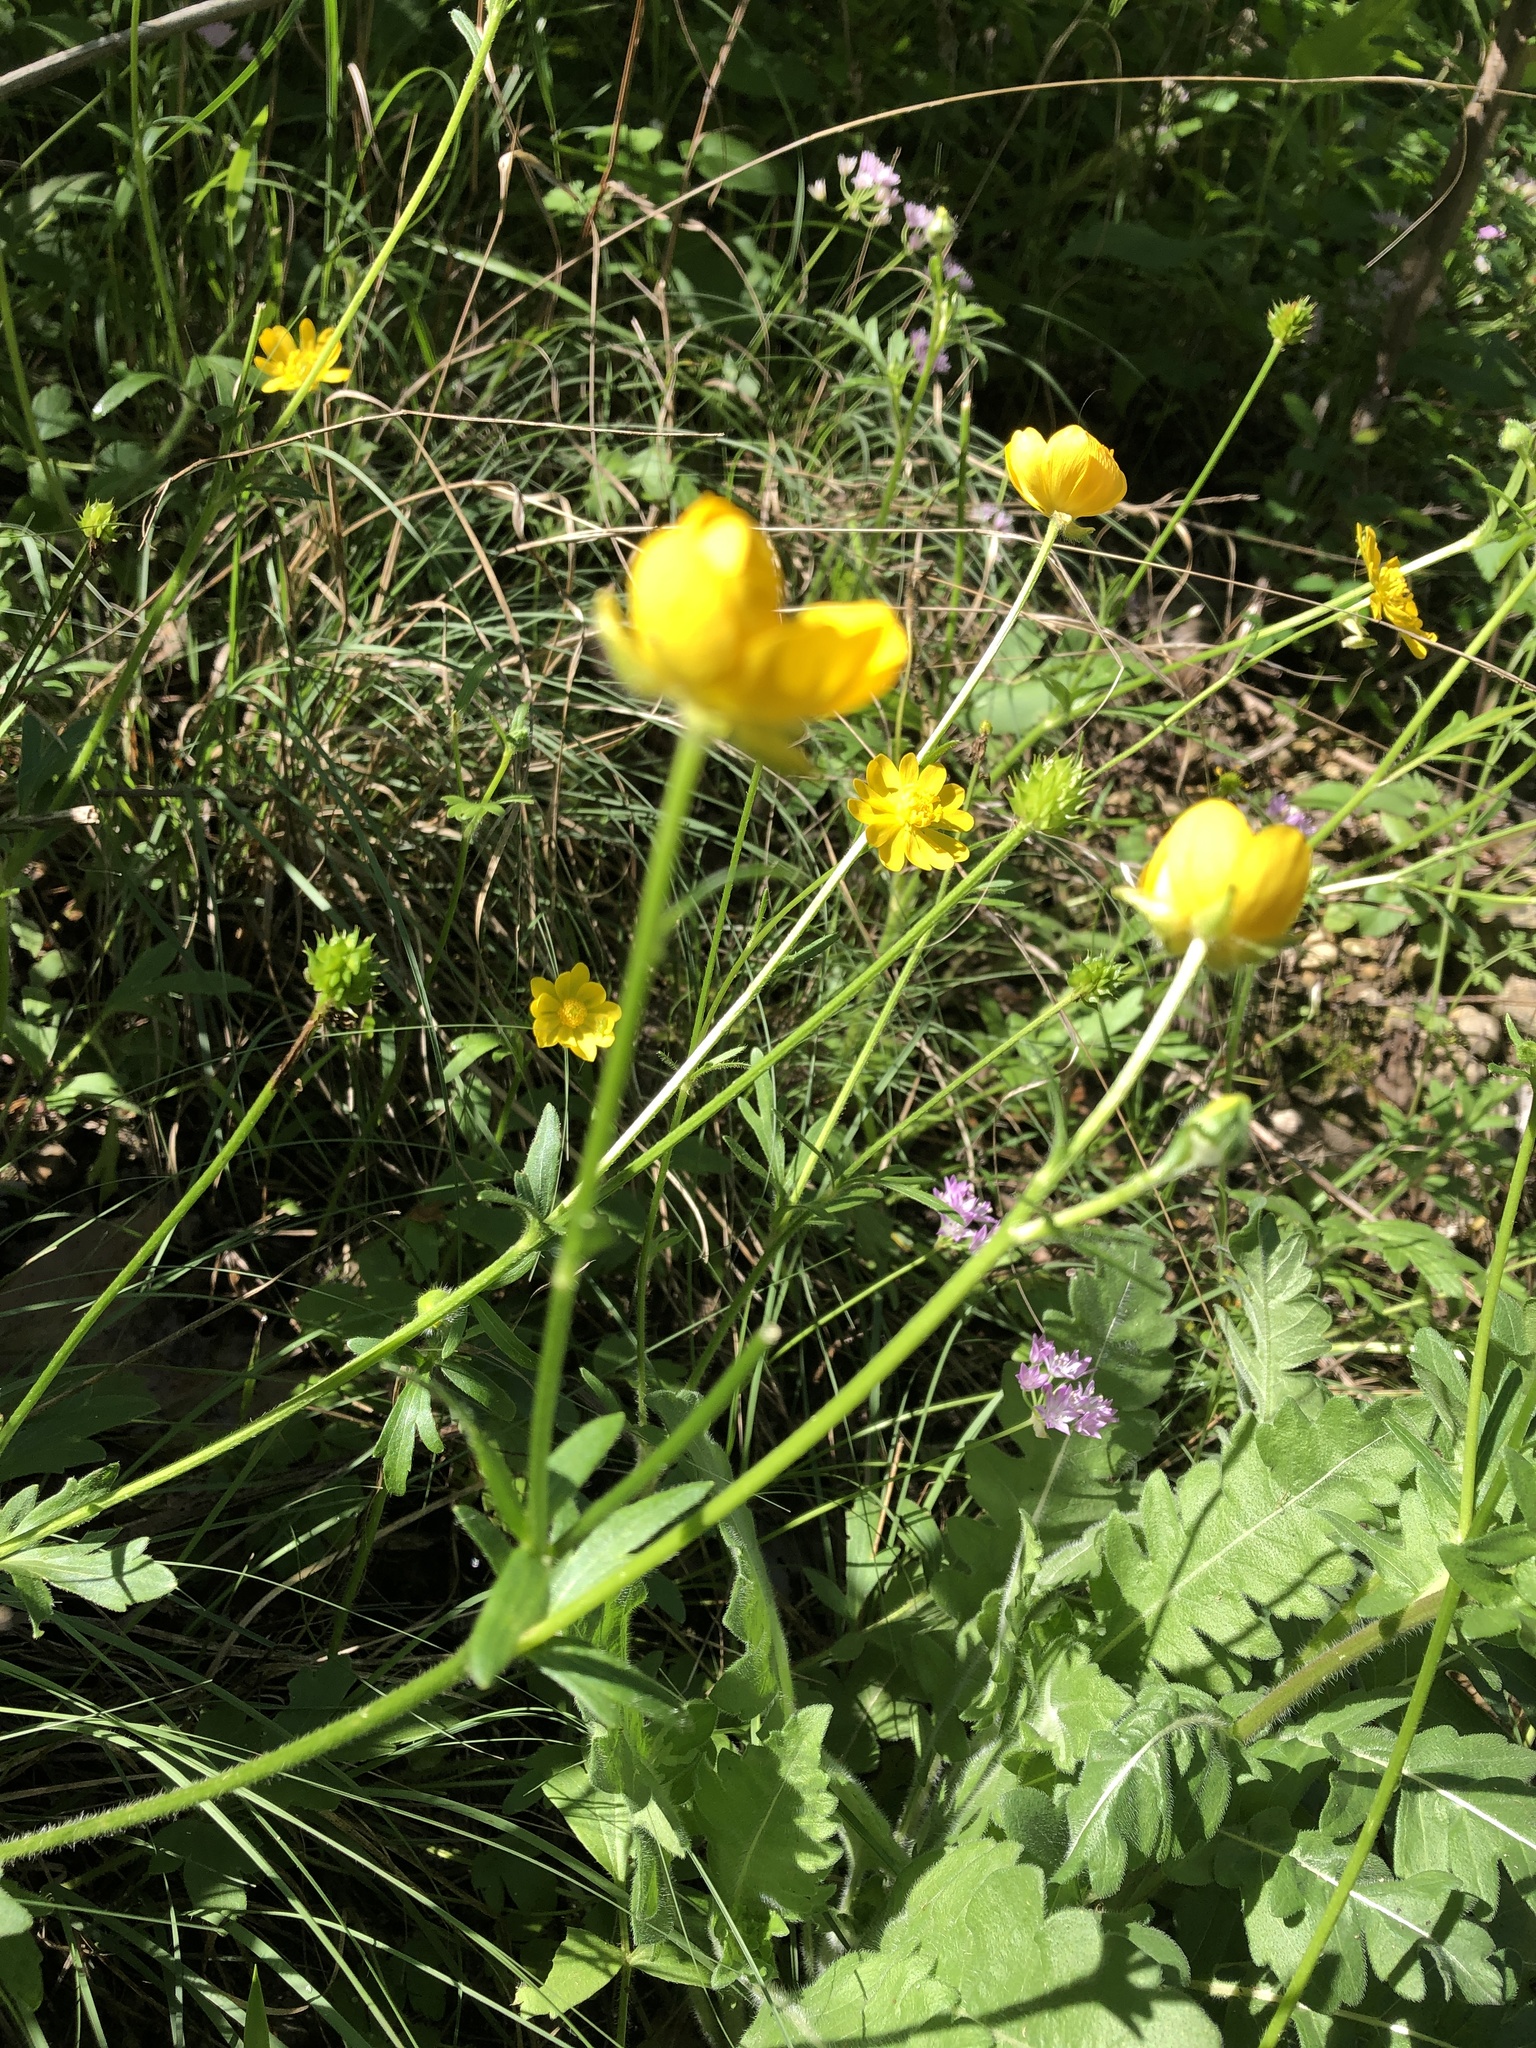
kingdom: Plantae
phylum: Tracheophyta
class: Magnoliopsida
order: Ranunculales
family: Ranunculaceae
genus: Ranunculus
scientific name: Ranunculus macranthus
